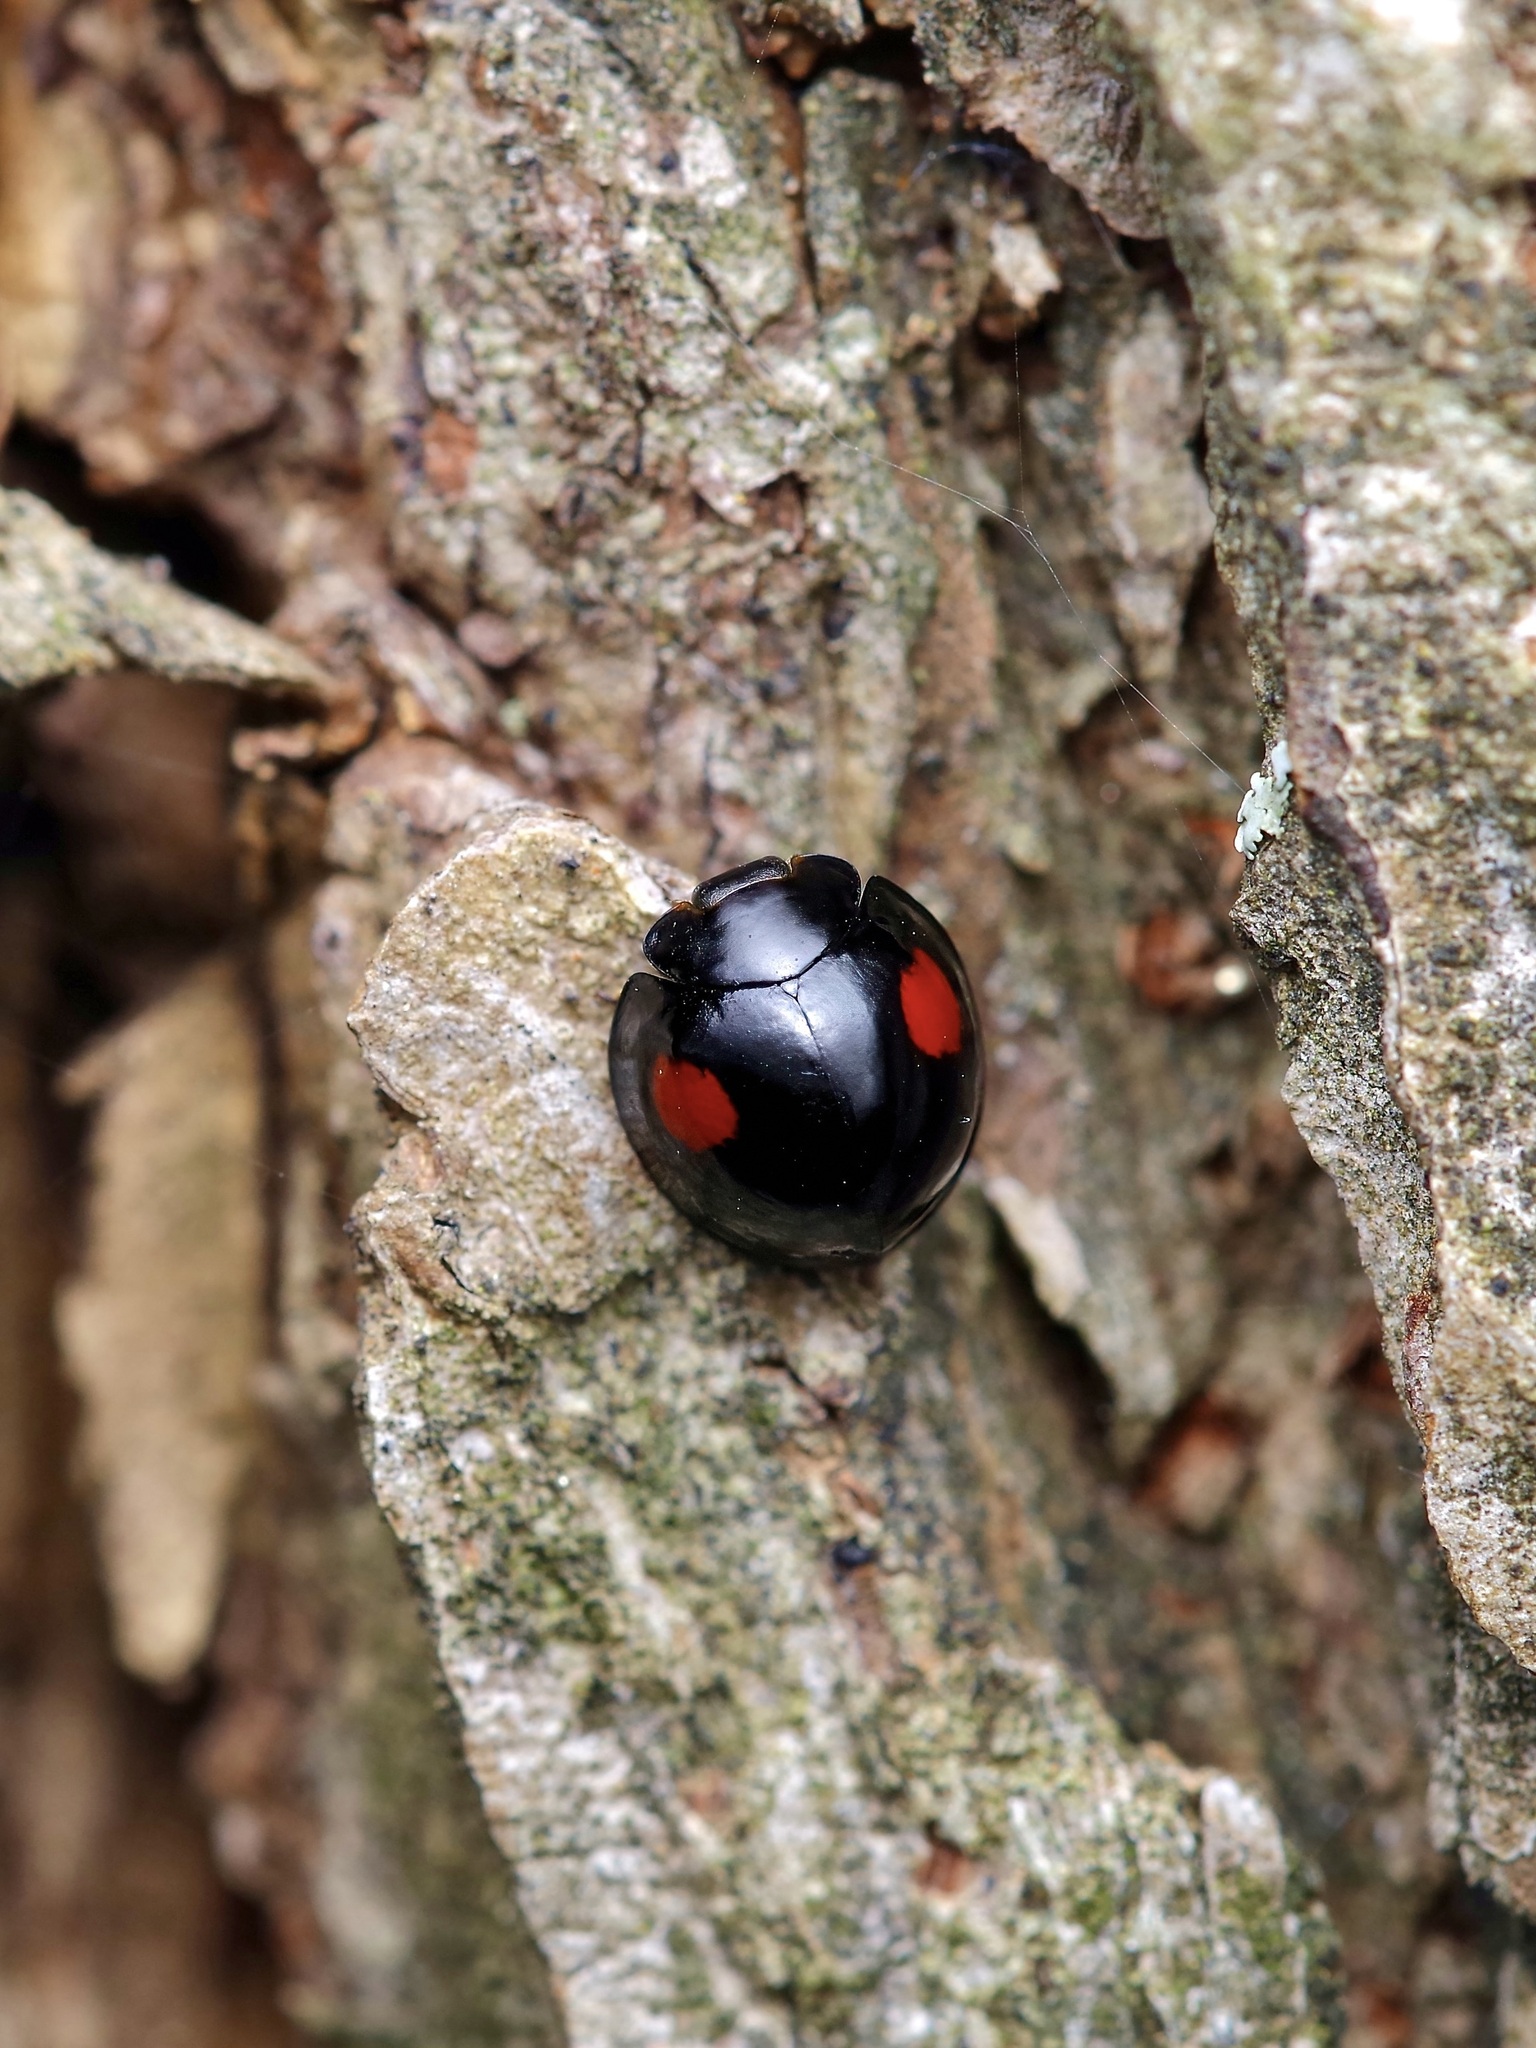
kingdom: Animalia
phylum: Arthropoda
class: Insecta
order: Coleoptera
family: Coccinellidae
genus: Axion
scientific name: Axion plagiatum
